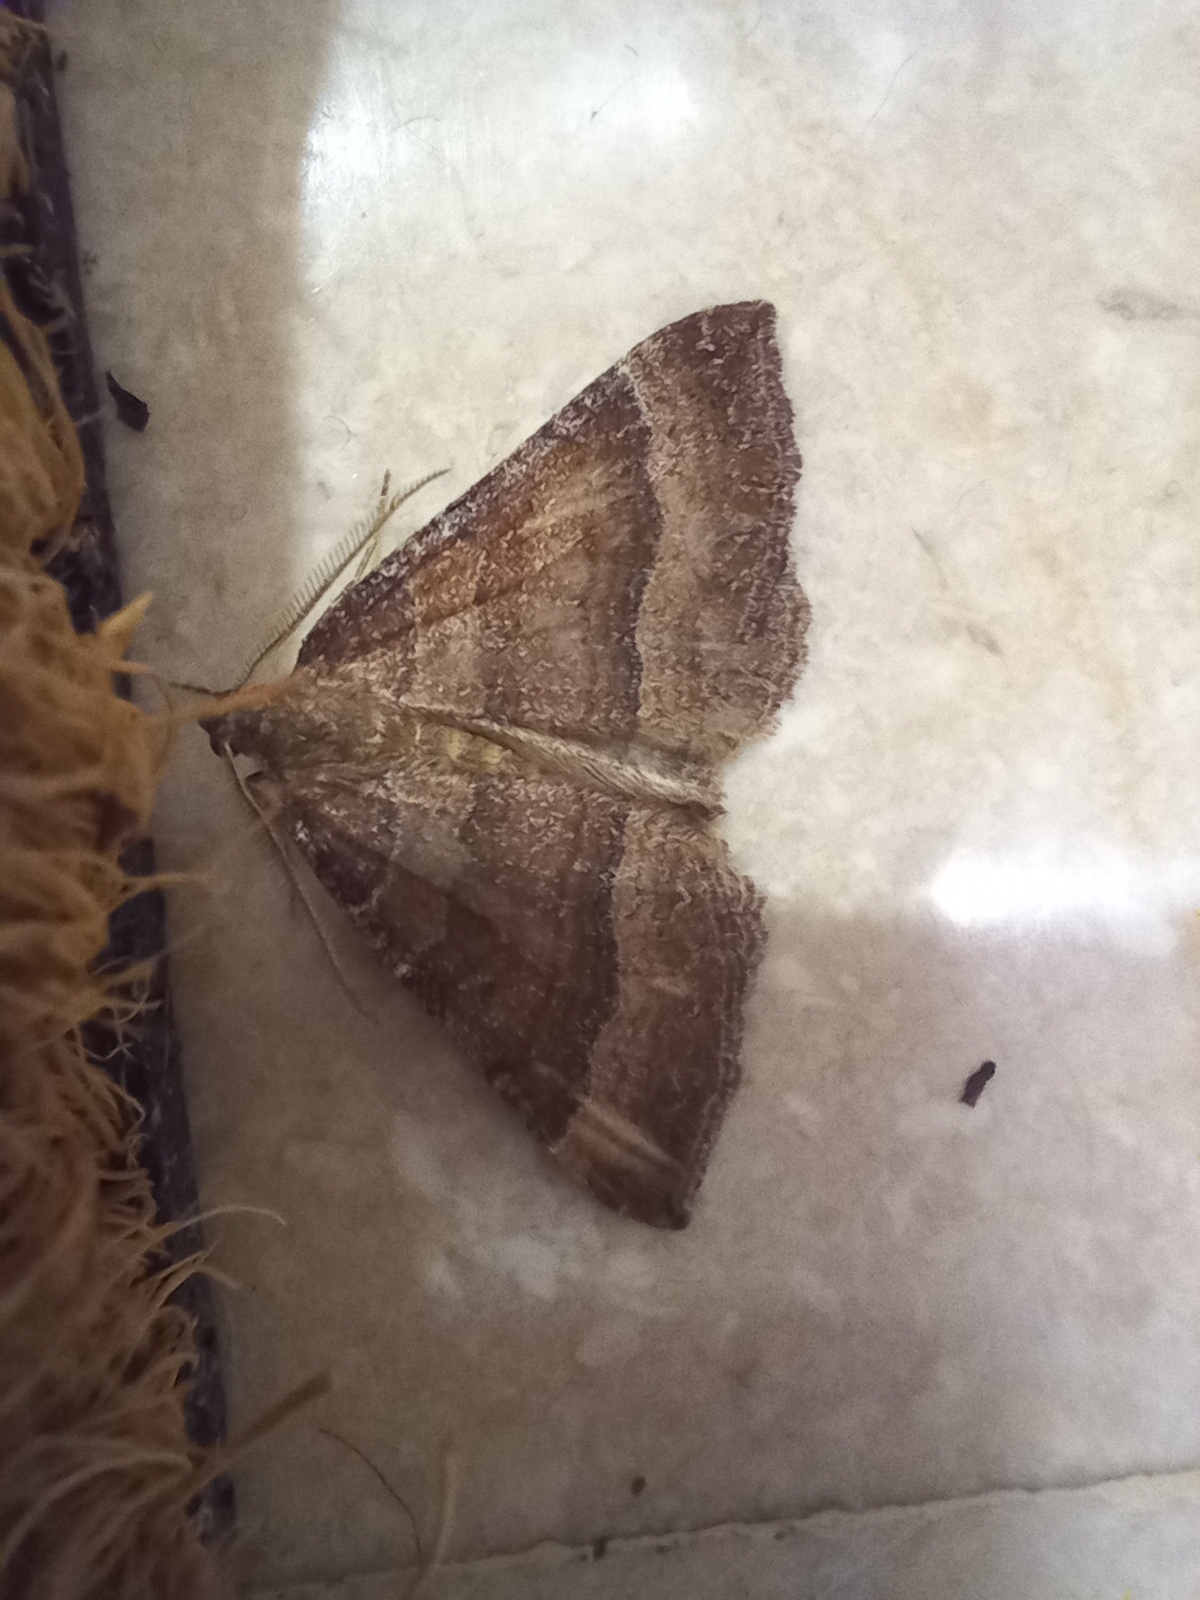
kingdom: Animalia
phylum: Arthropoda
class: Insecta
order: Lepidoptera
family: Geometridae
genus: Larentia
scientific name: Larentia clavaria
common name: Mallow
